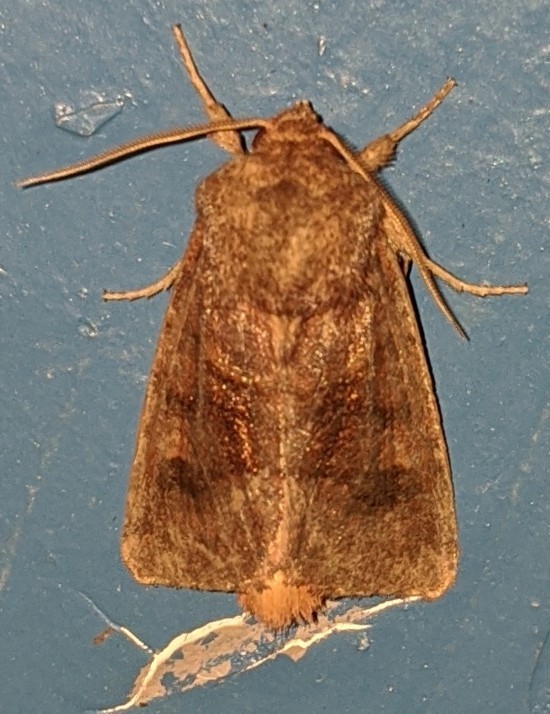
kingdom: Animalia
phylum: Arthropoda
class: Insecta
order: Lepidoptera
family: Noctuidae
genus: Nephelodes
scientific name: Nephelodes minians
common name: Bronzed cutworm
